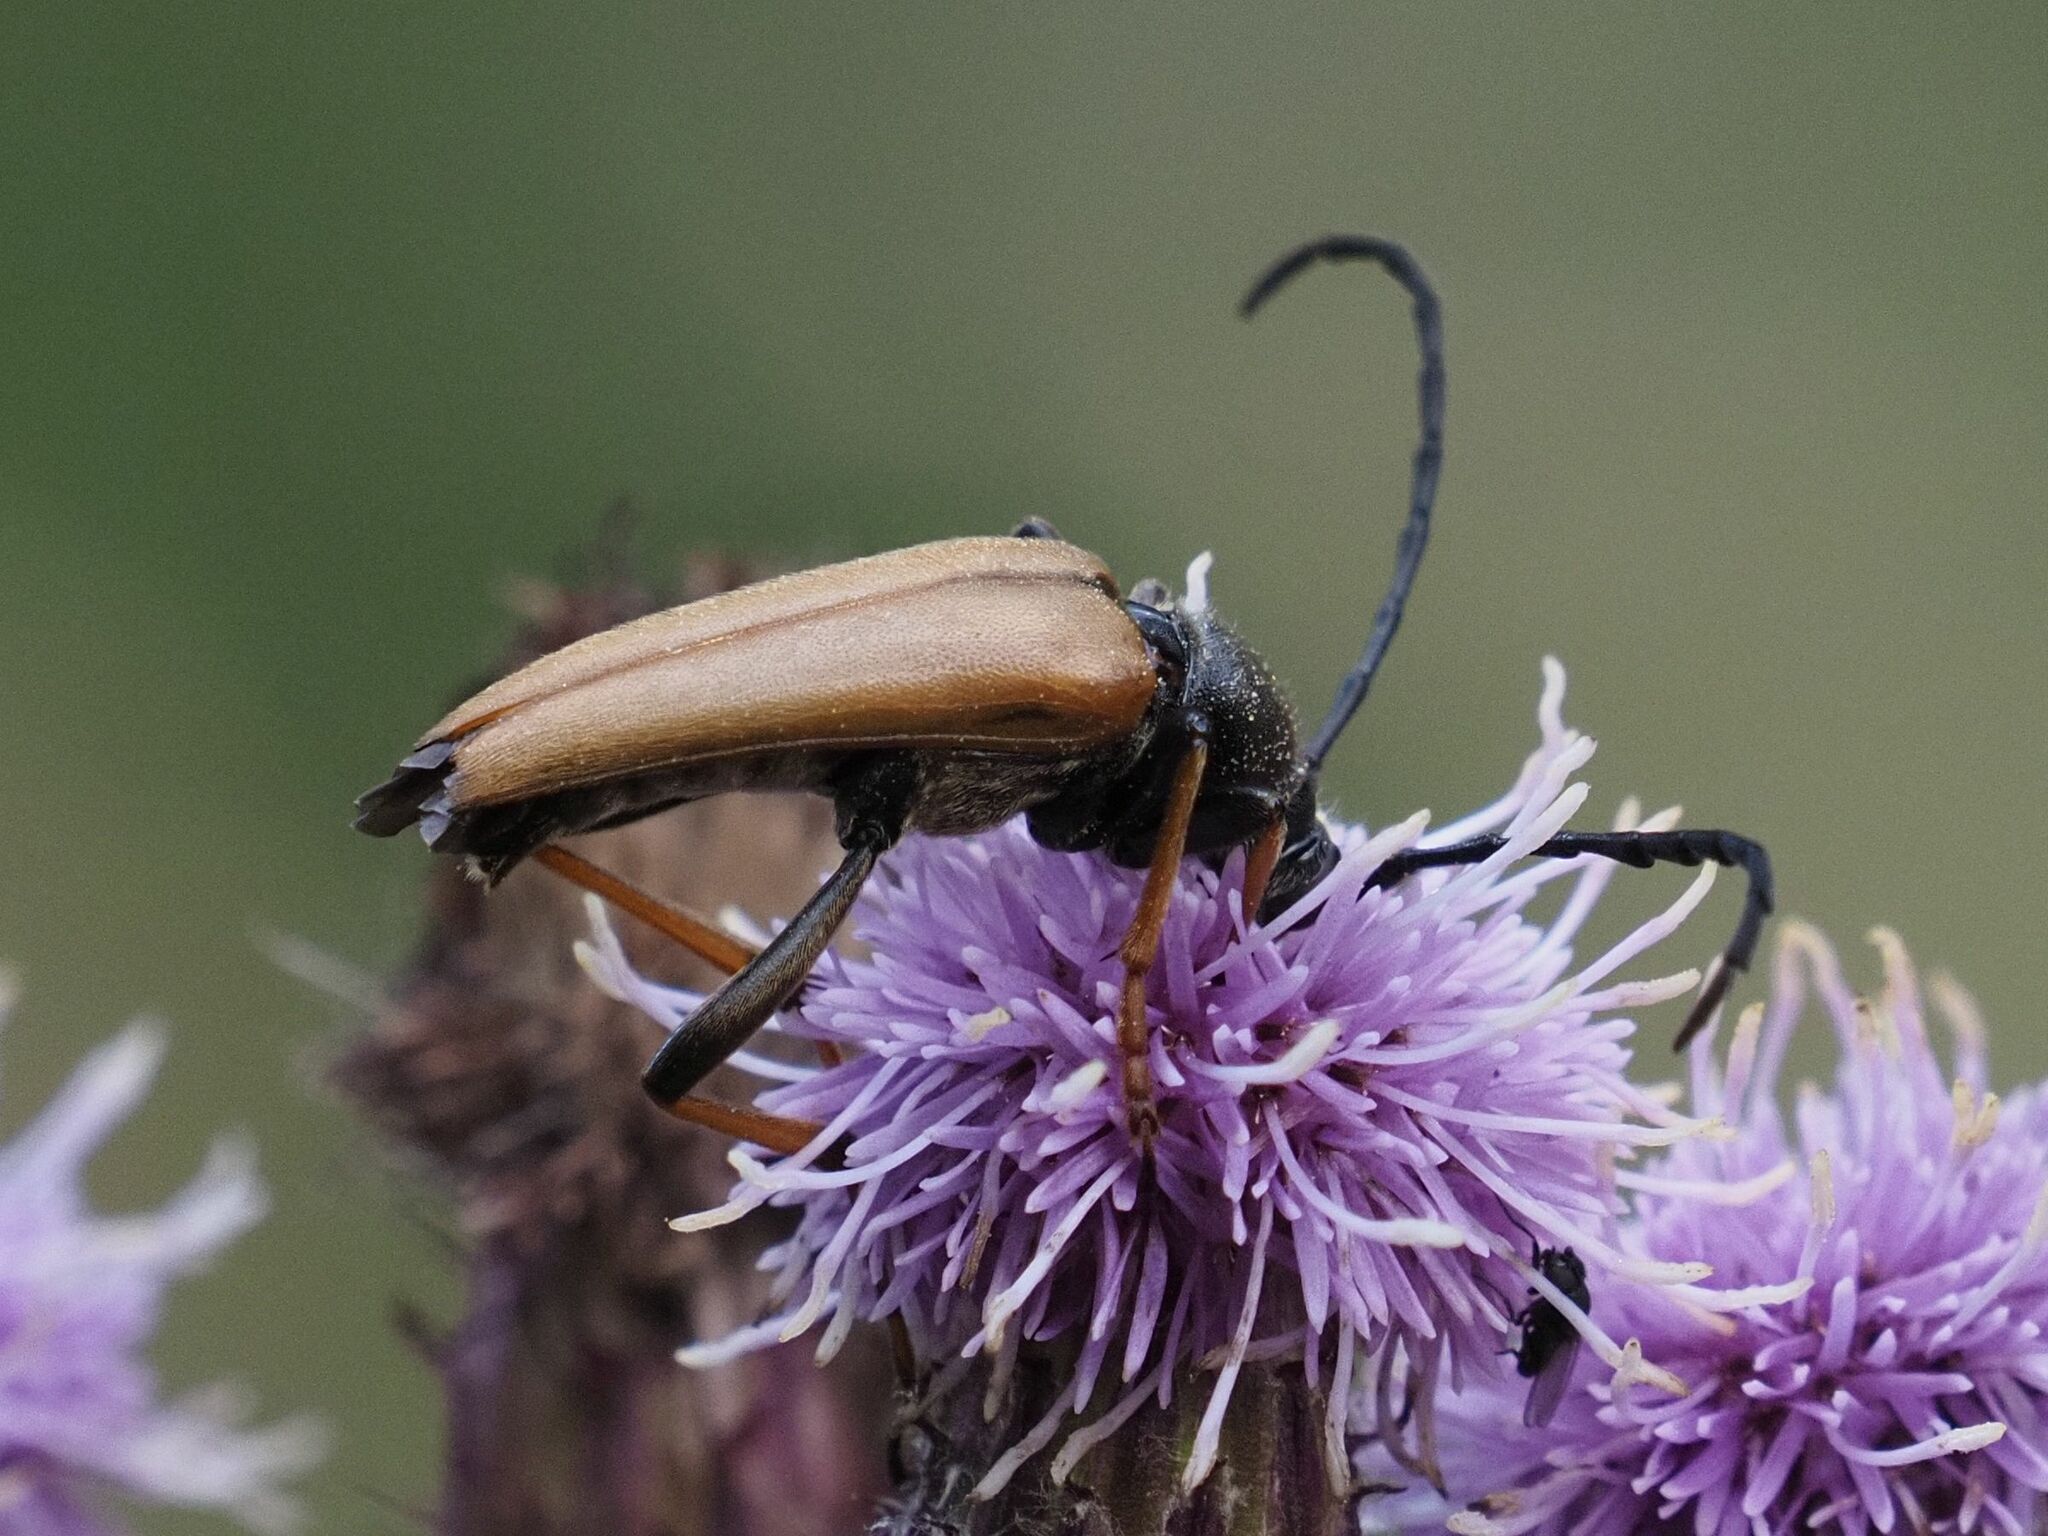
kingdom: Animalia
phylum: Arthropoda
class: Insecta
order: Coleoptera
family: Cerambycidae
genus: Stictoleptura
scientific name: Stictoleptura rubra
